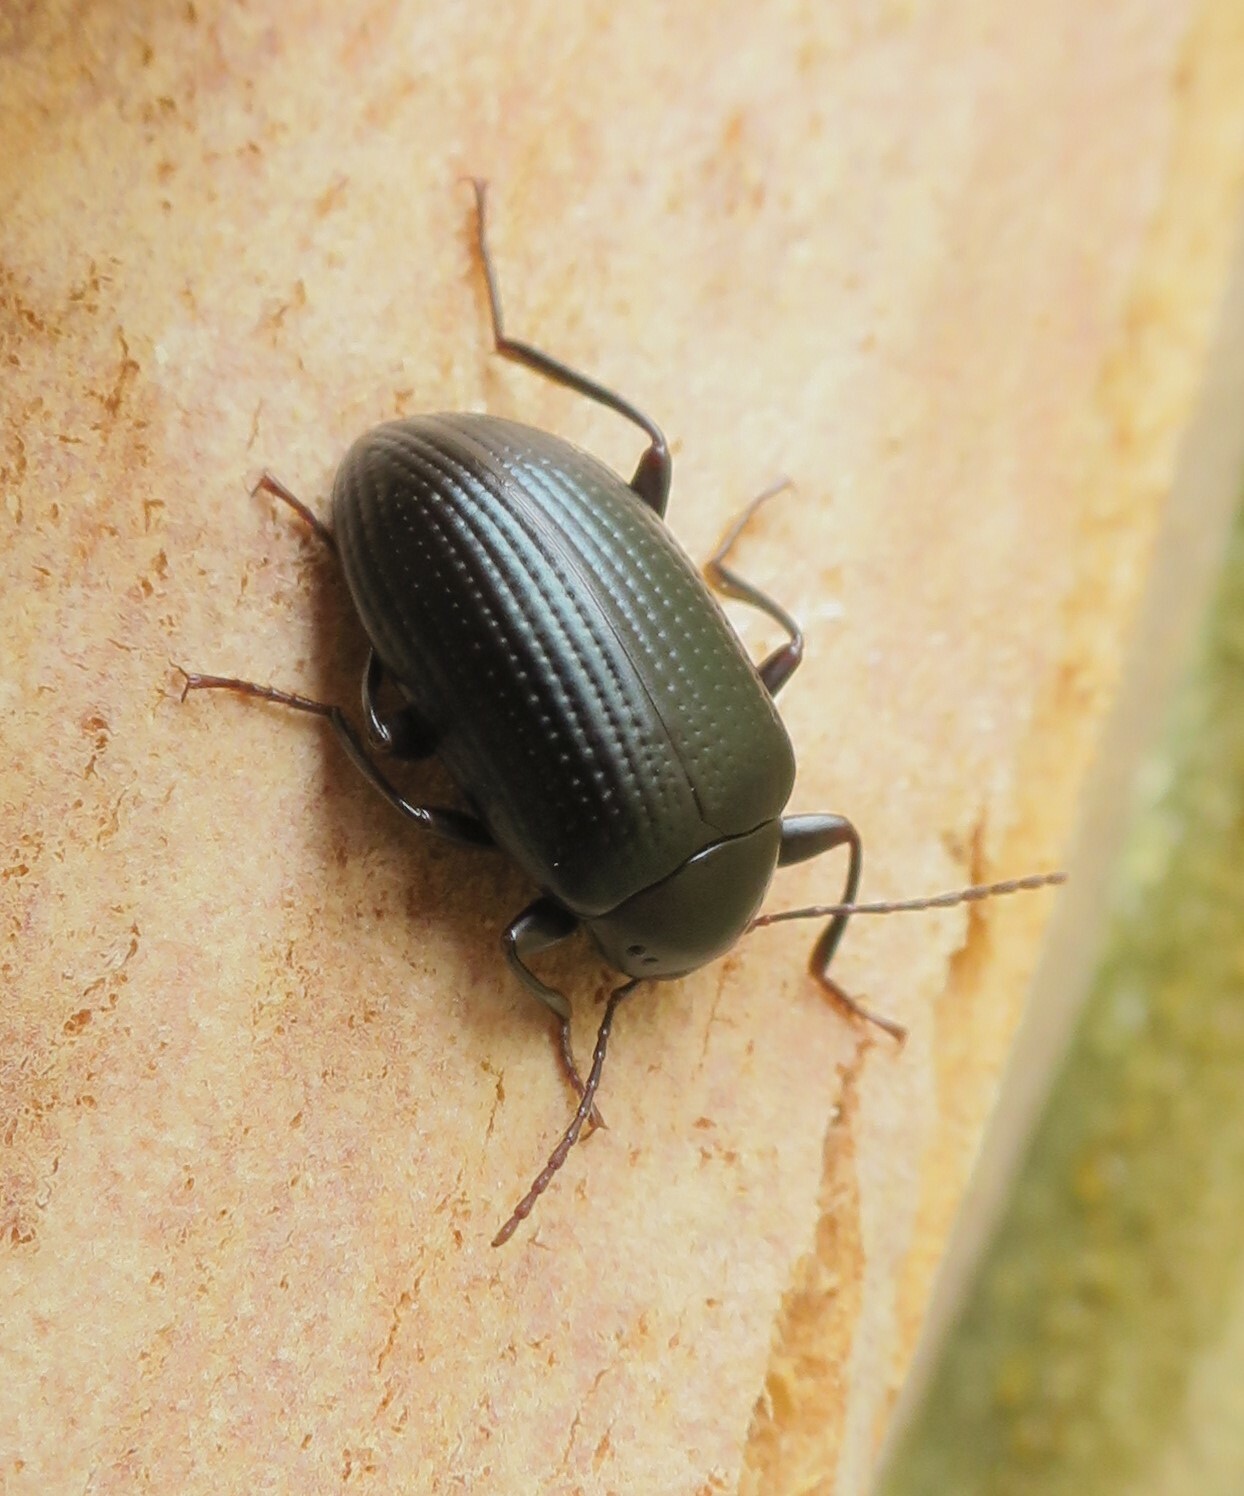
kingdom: Animalia
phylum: Arthropoda
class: Insecta
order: Coleoptera
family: Tenebrionidae
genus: Amarygmus
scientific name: Amarygmus
